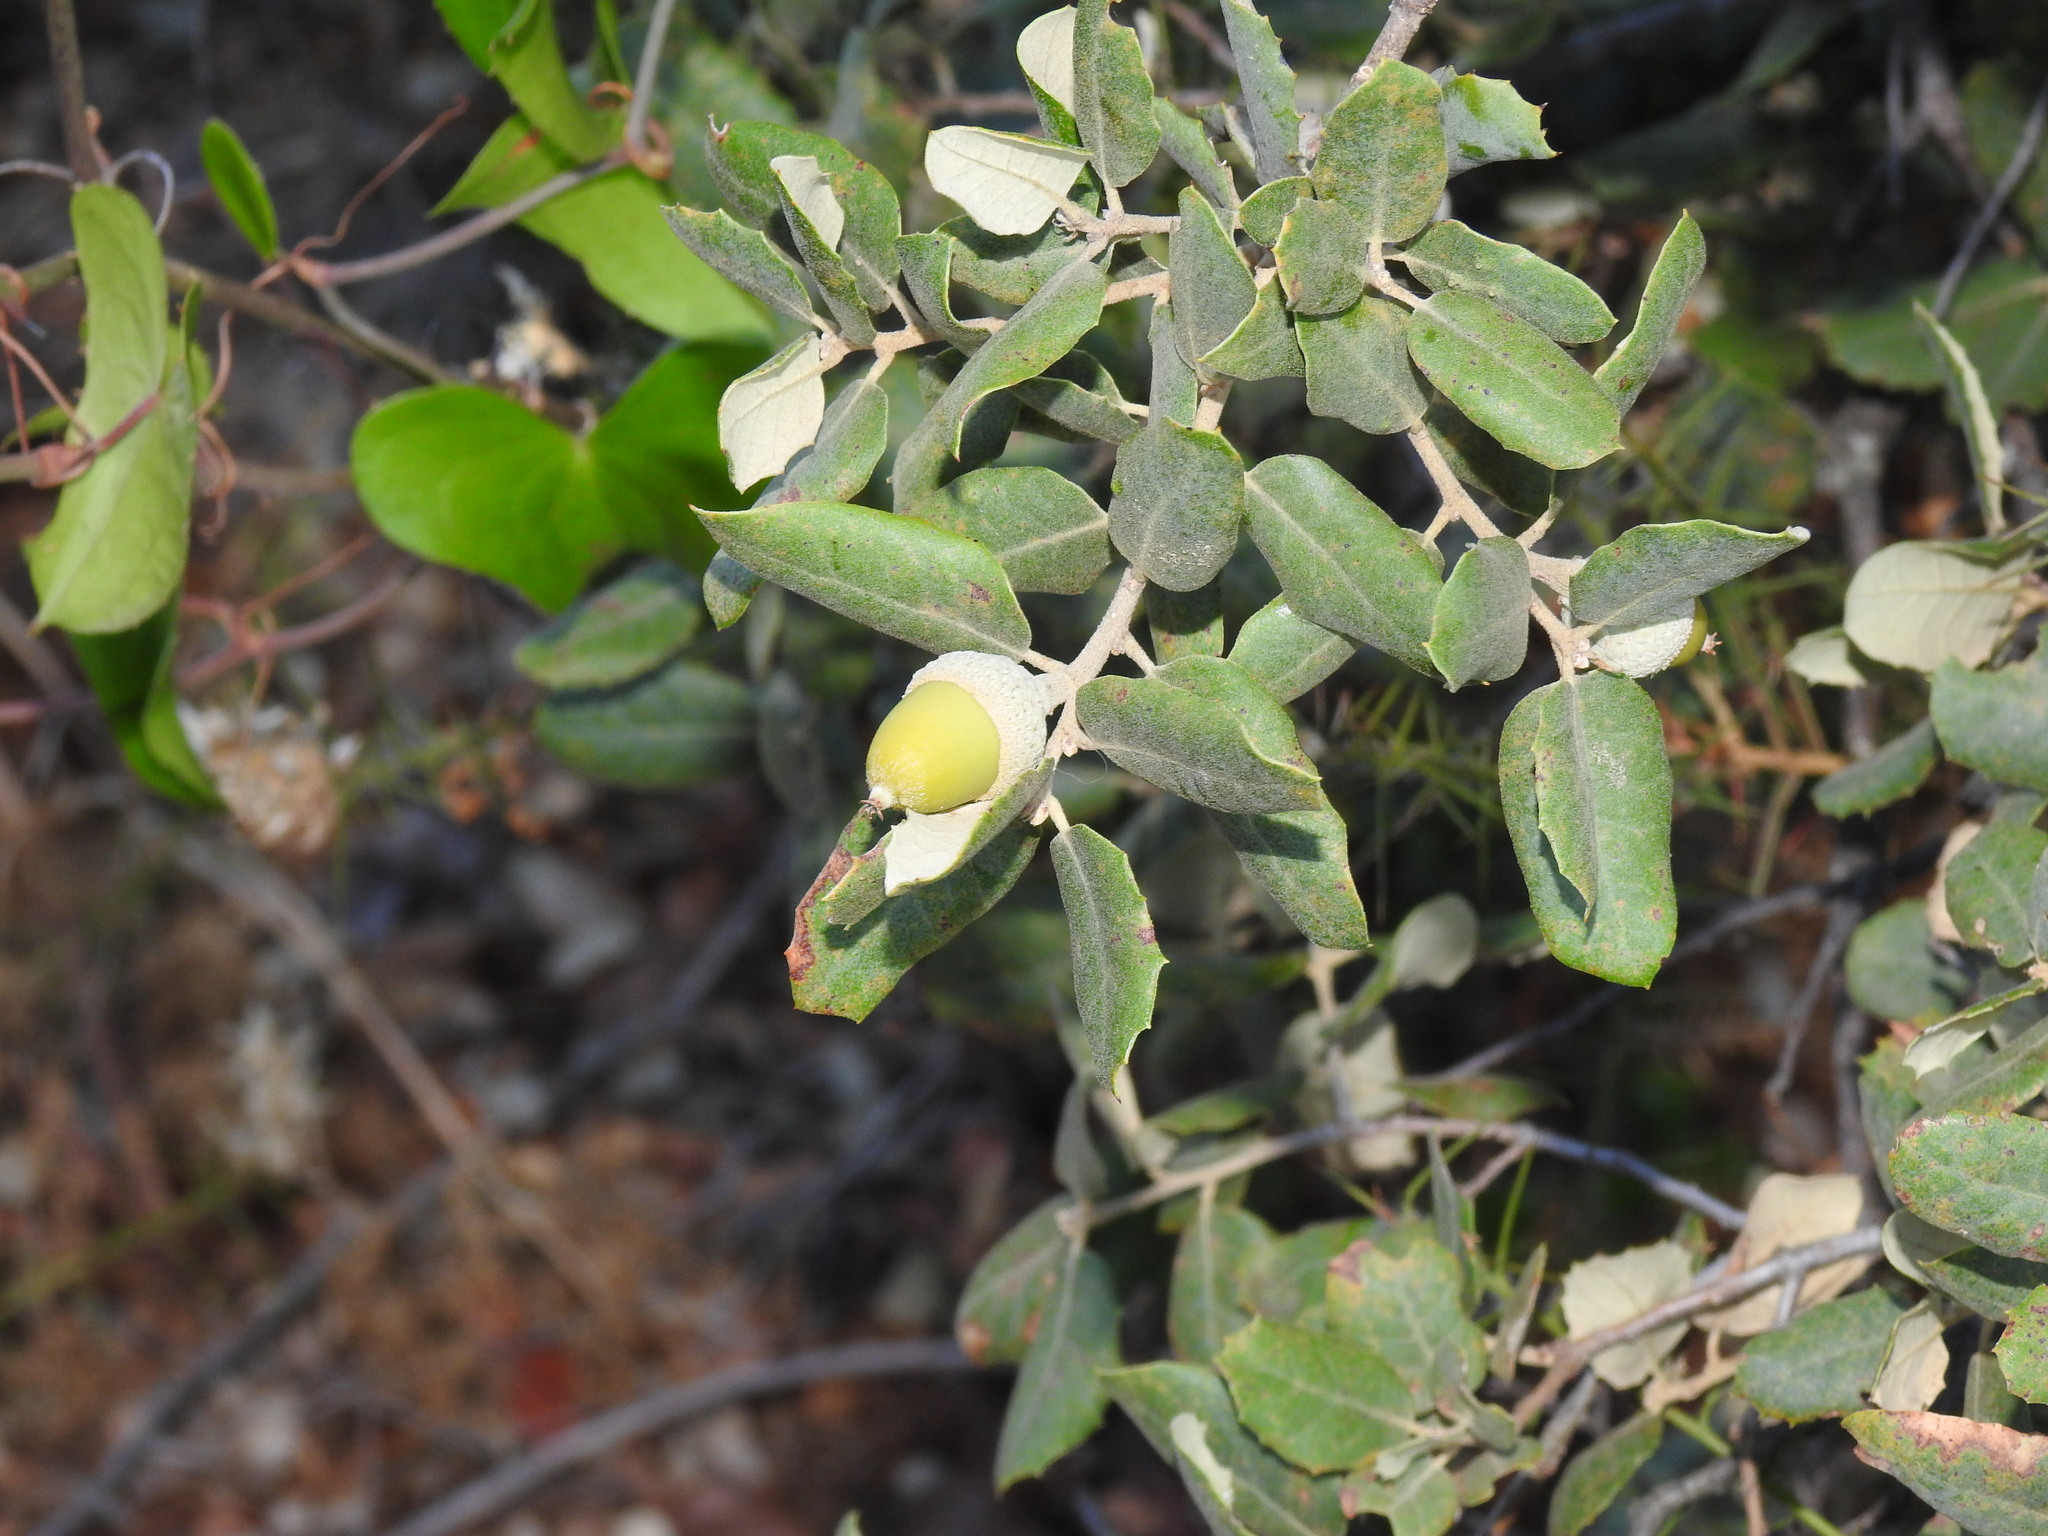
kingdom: Plantae
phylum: Tracheophyta
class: Magnoliopsida
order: Fagales
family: Fagaceae
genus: Quercus
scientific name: Quercus rotundifolia
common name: Holm oak
